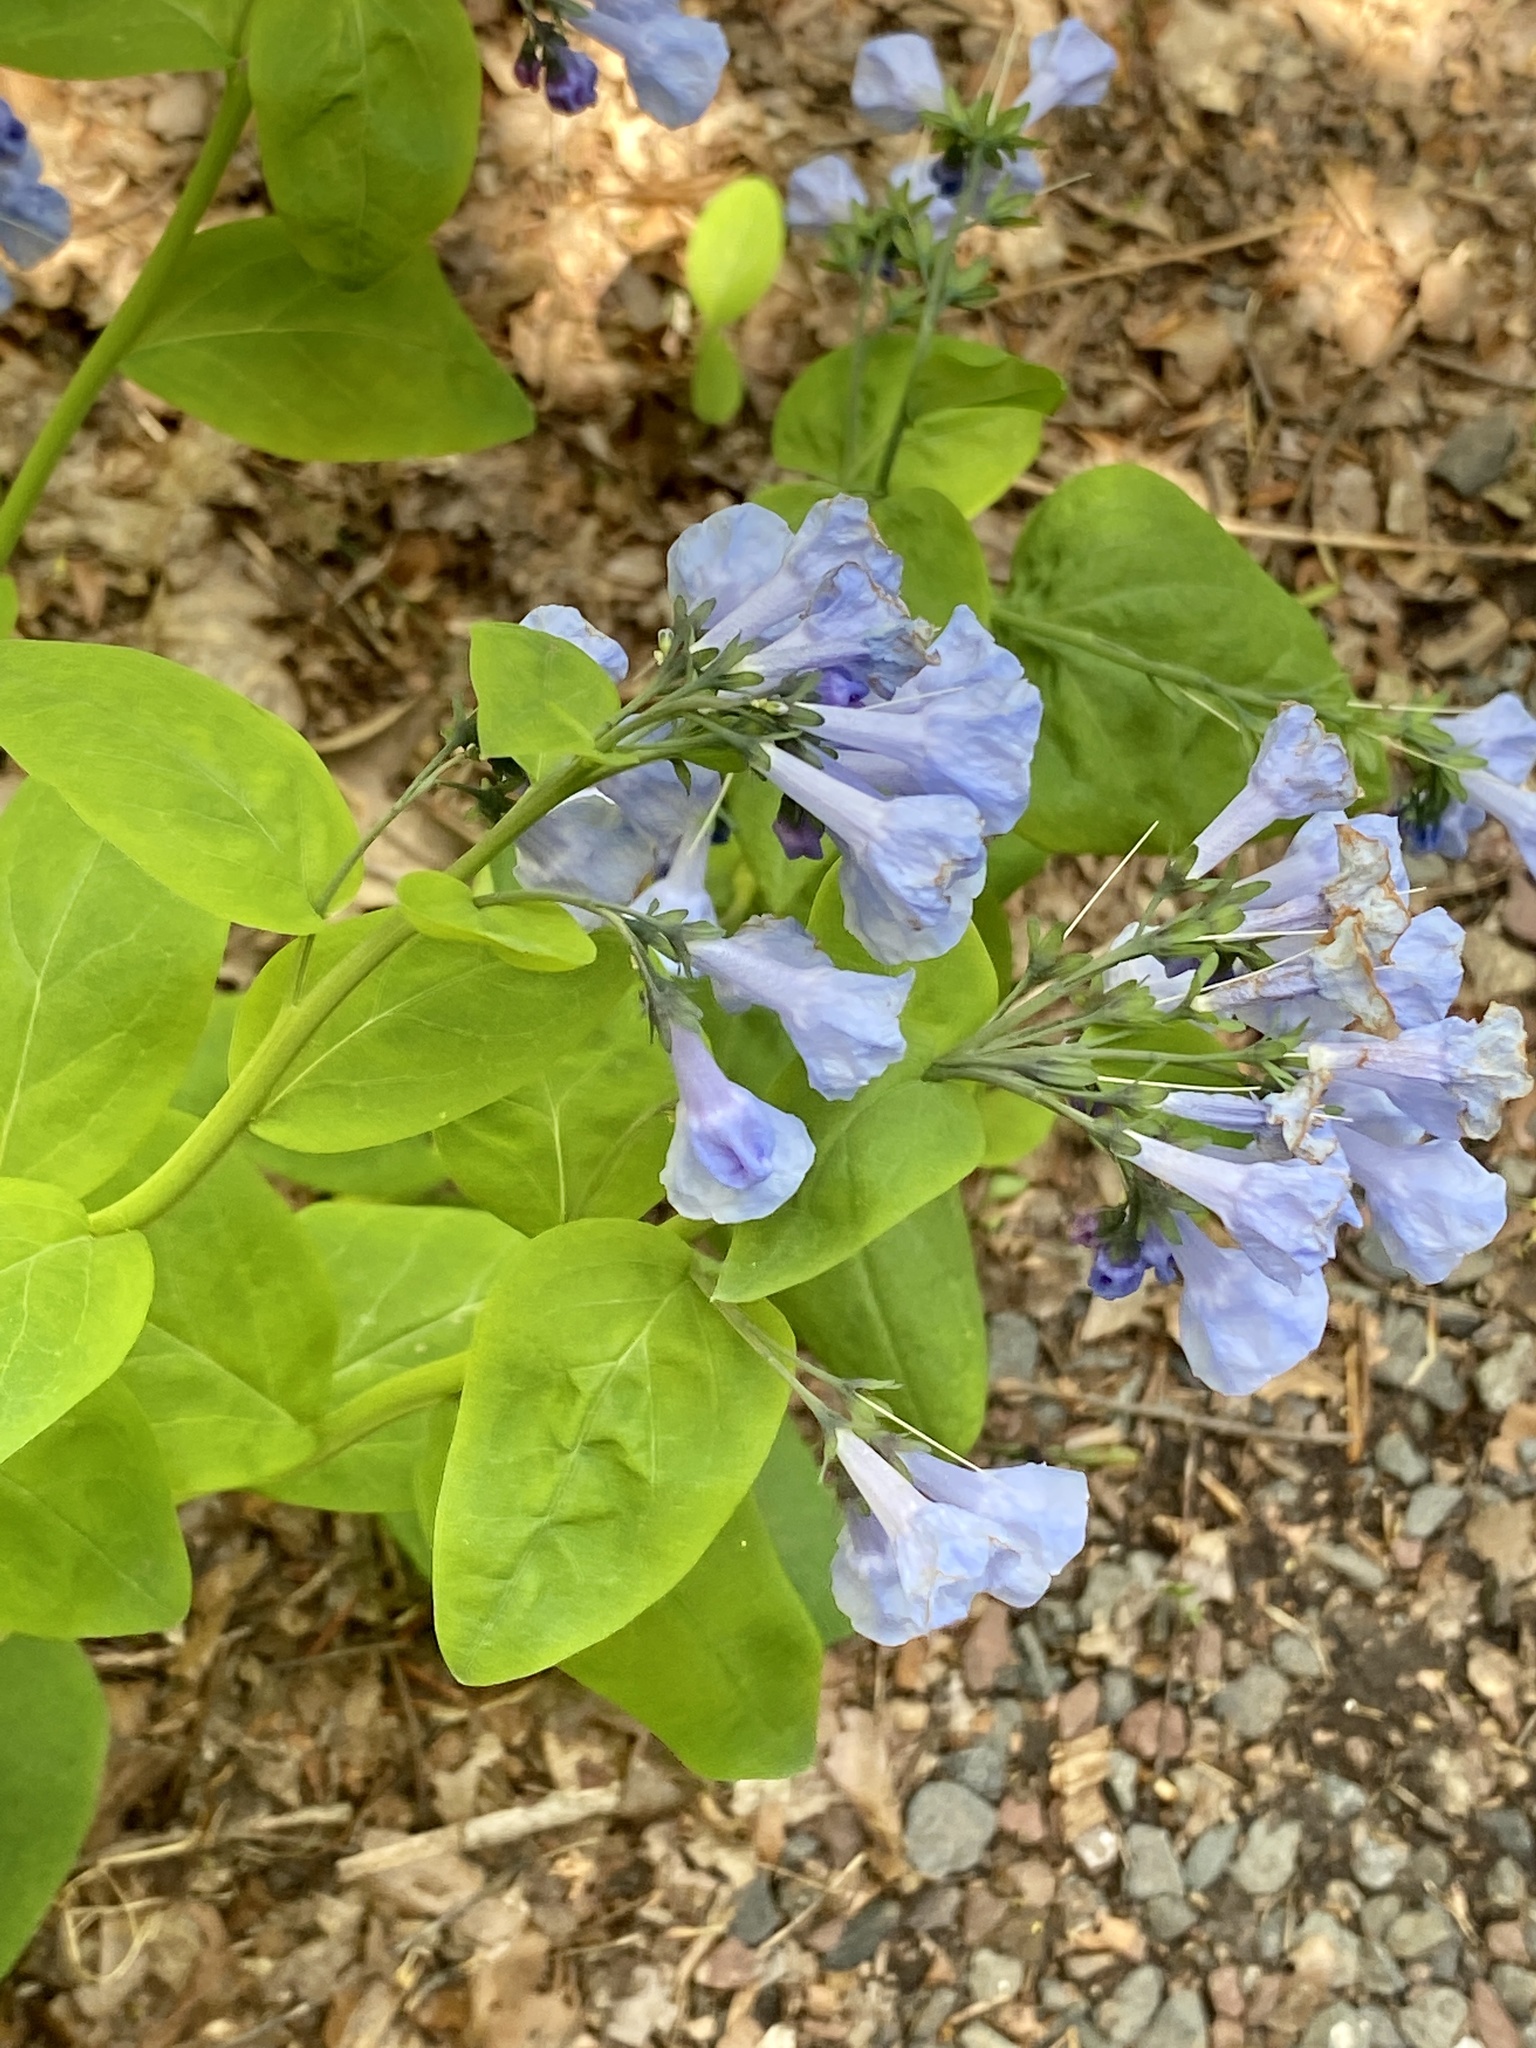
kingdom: Plantae
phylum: Tracheophyta
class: Magnoliopsida
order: Boraginales
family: Boraginaceae
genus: Mertensia
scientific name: Mertensia virginica
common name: Virginia bluebells
